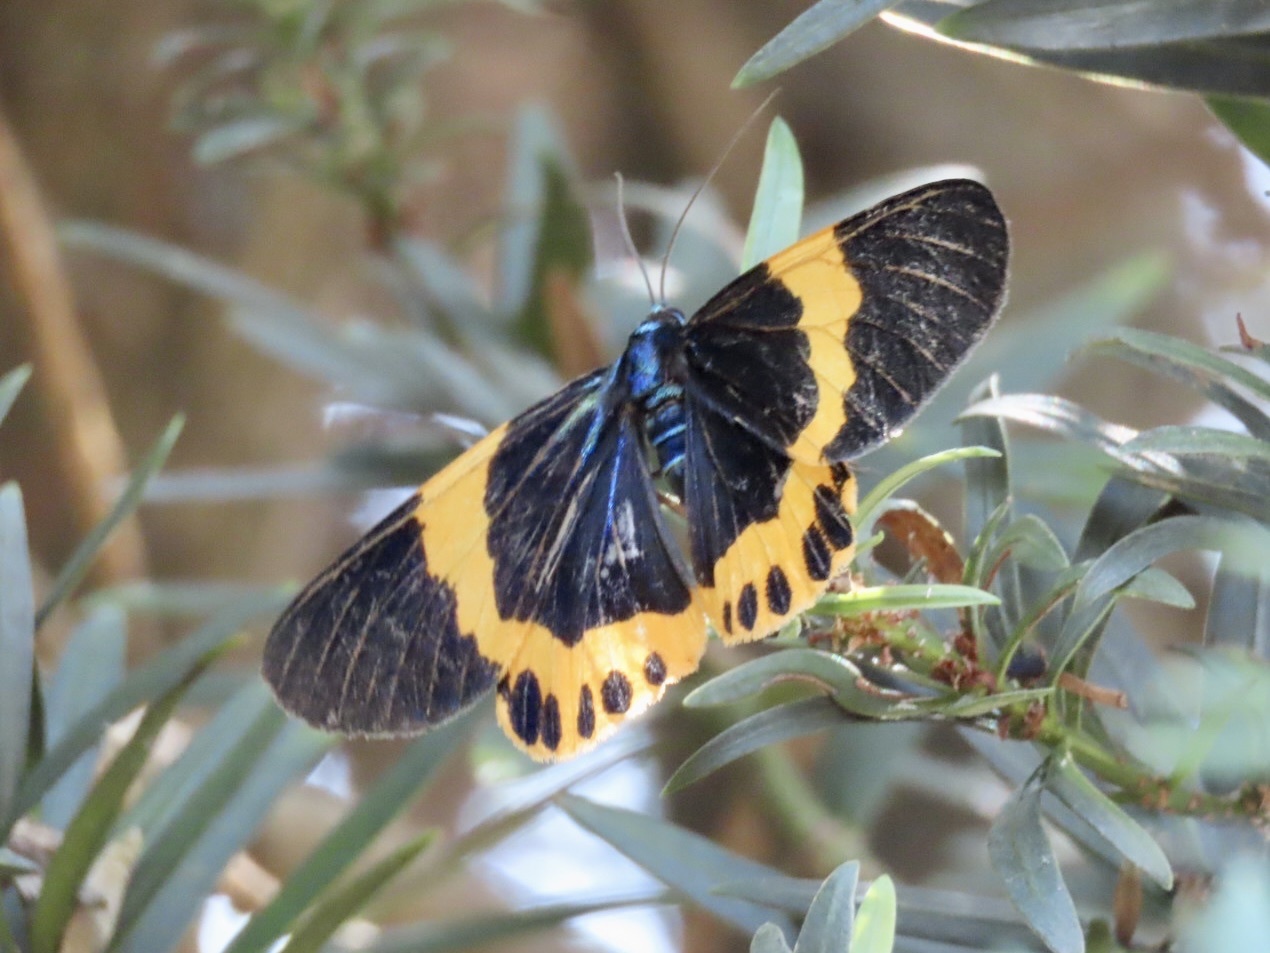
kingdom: Animalia
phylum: Arthropoda
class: Insecta
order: Lepidoptera
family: Geometridae
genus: Milionia
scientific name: Milionia basalis
